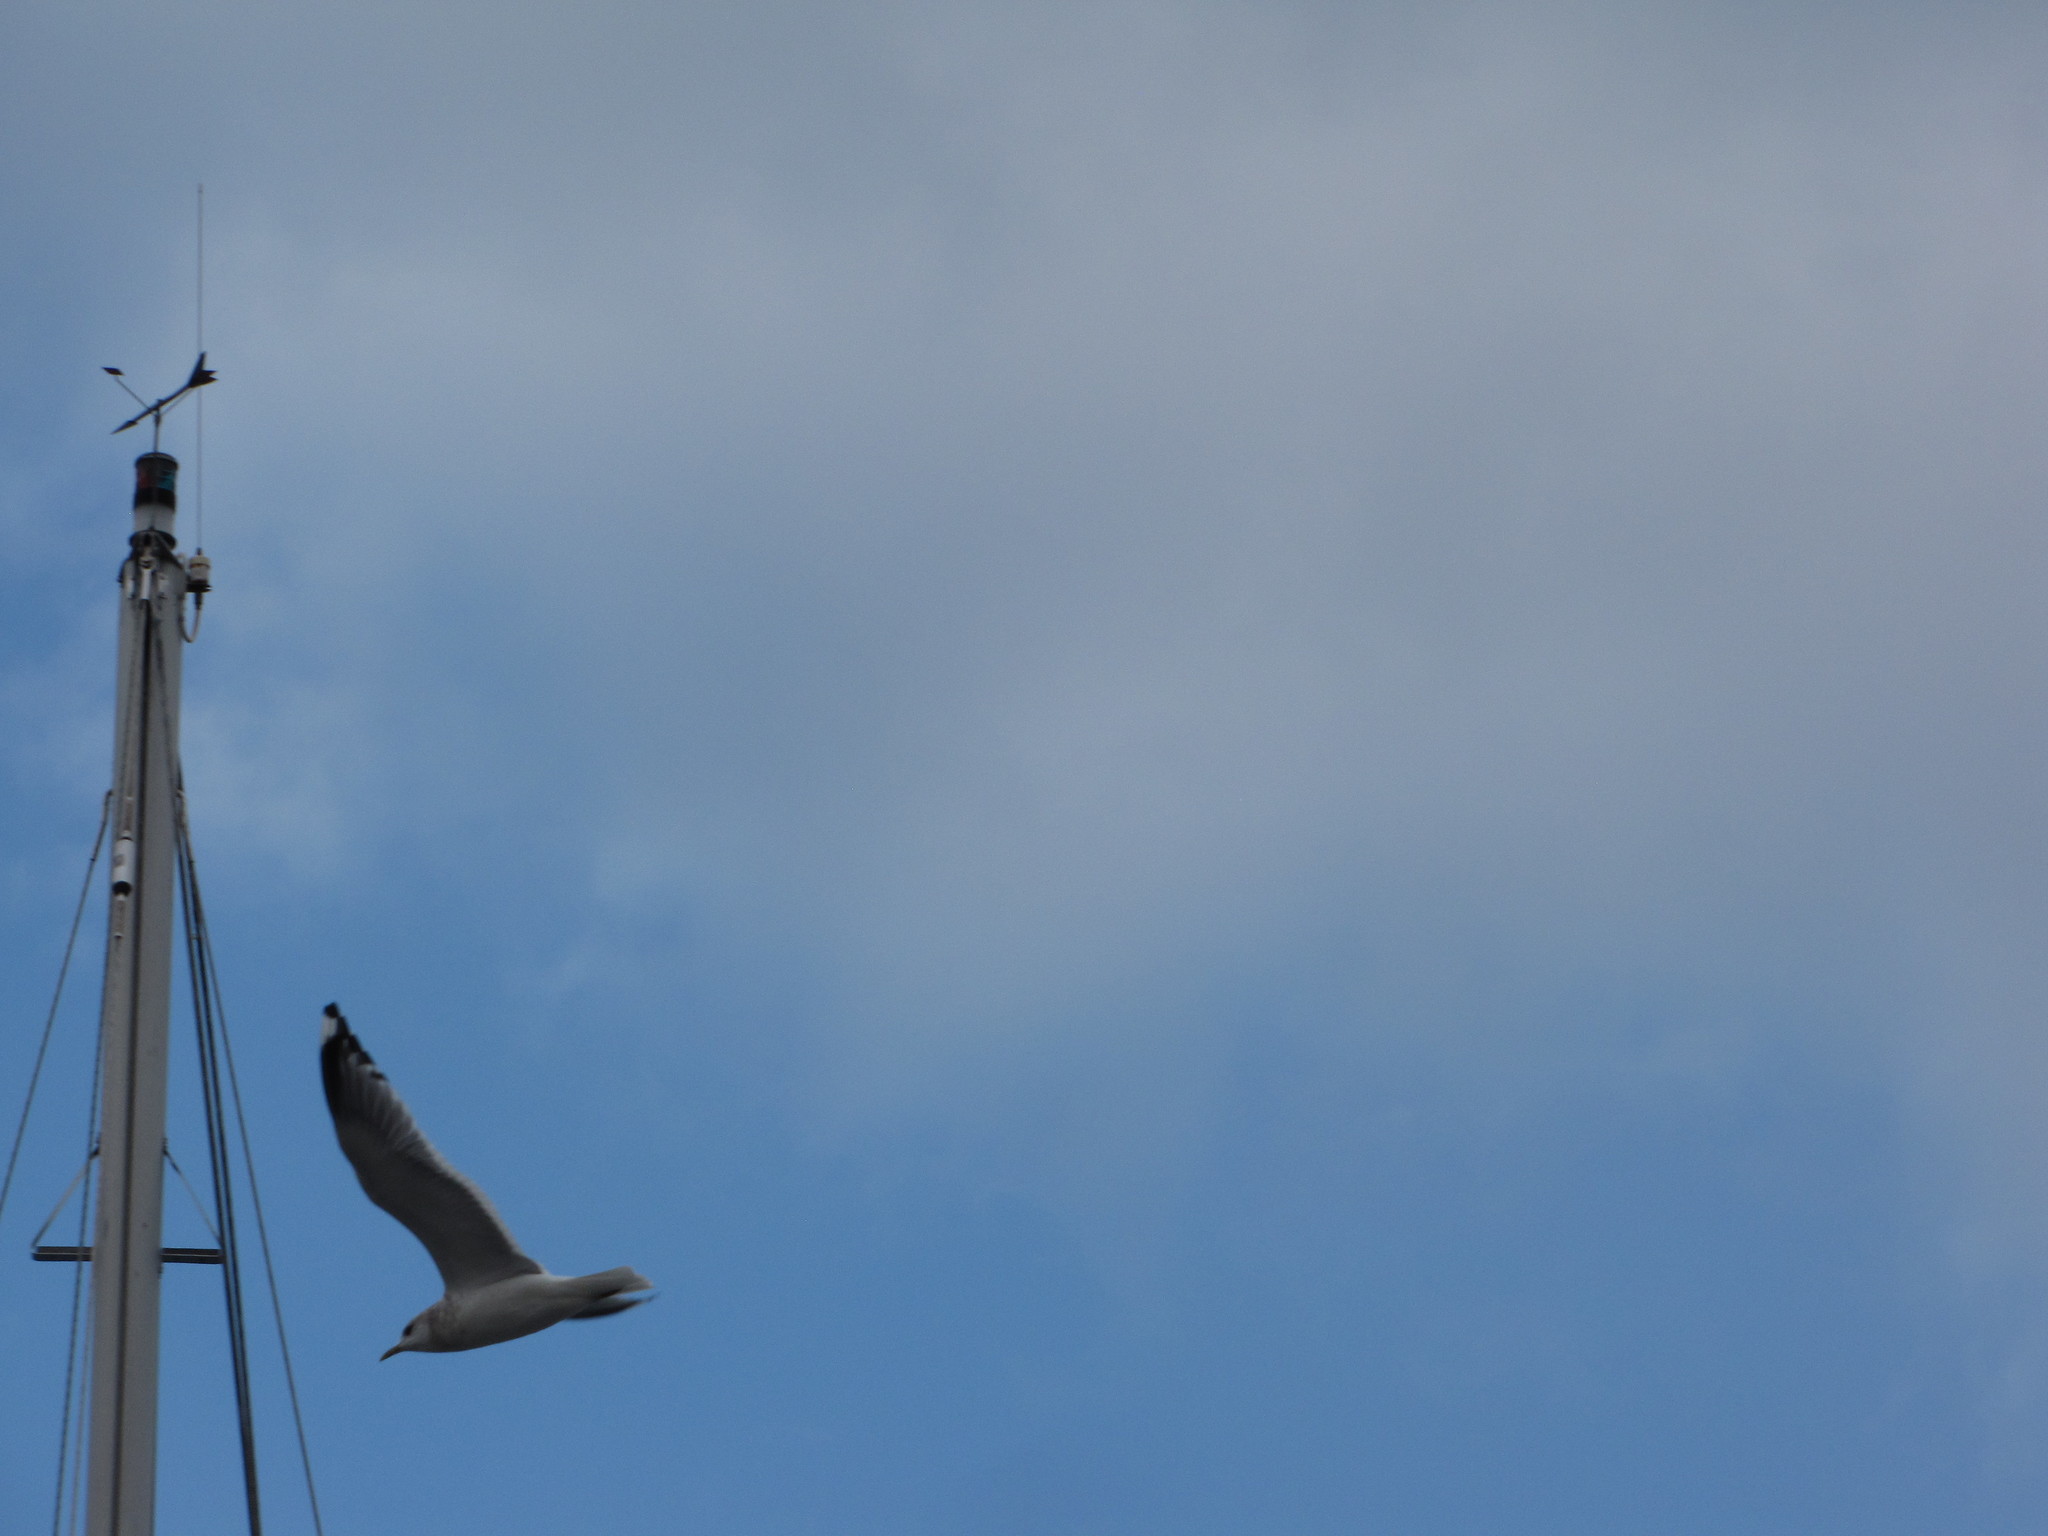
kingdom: Animalia
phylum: Chordata
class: Aves
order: Charadriiformes
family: Laridae
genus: Larus
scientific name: Larus brachyrhynchus
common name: Short-billed gull
